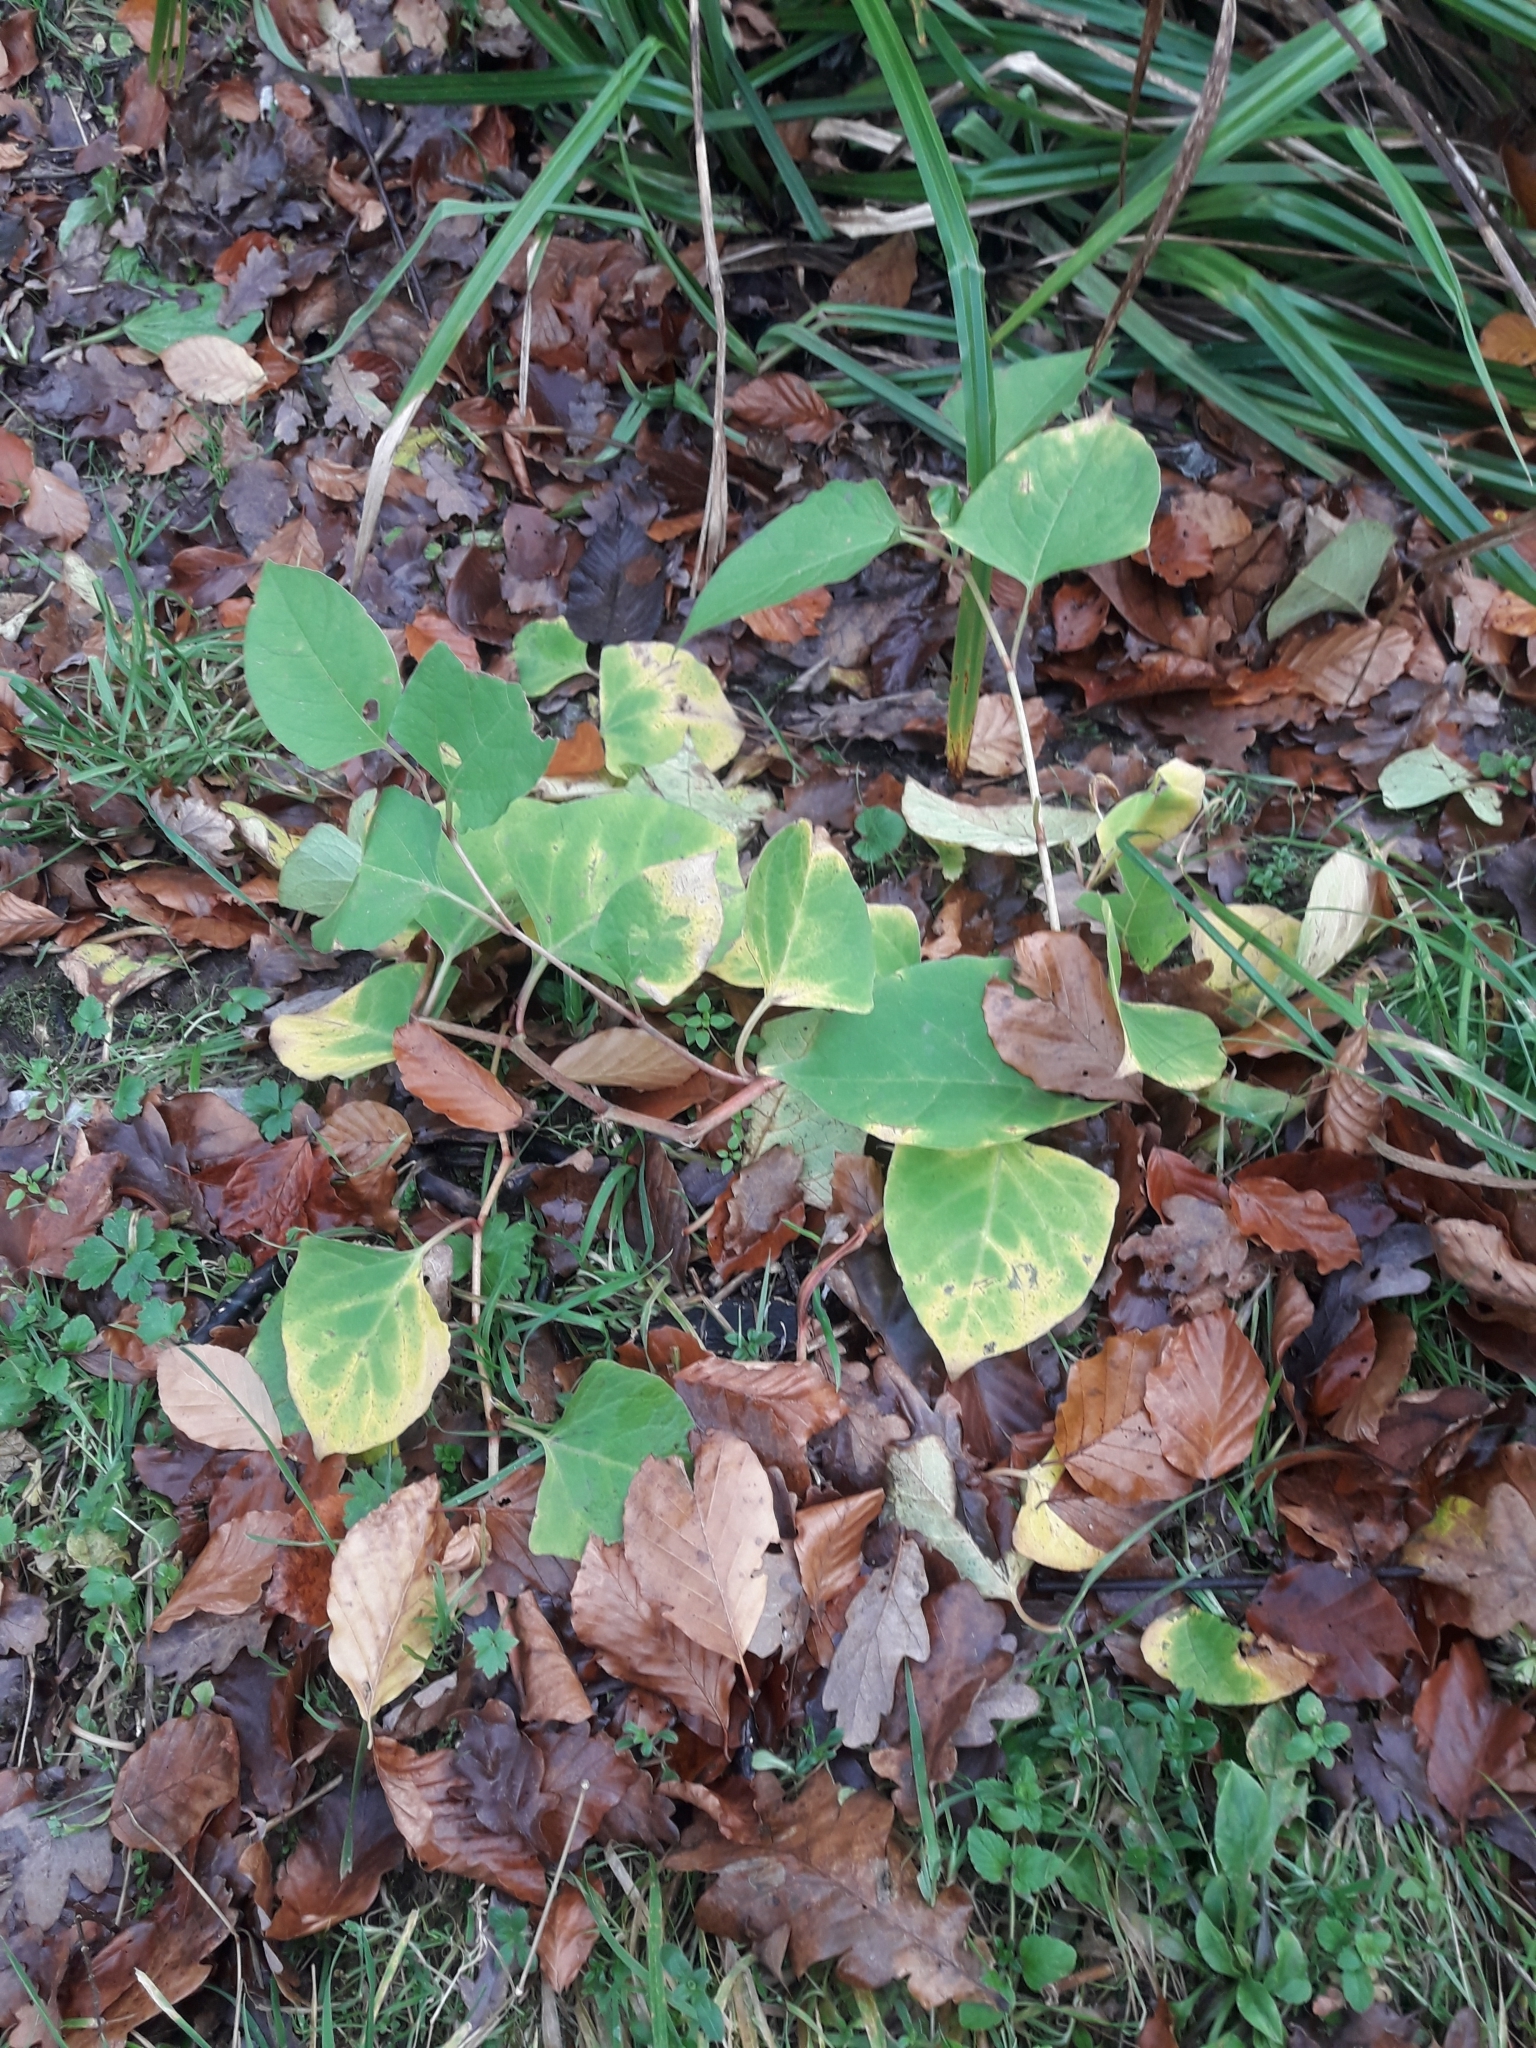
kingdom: Plantae
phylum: Tracheophyta
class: Magnoliopsida
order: Caryophyllales
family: Polygonaceae
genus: Reynoutria
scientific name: Reynoutria japonica
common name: Japanese knotweed
